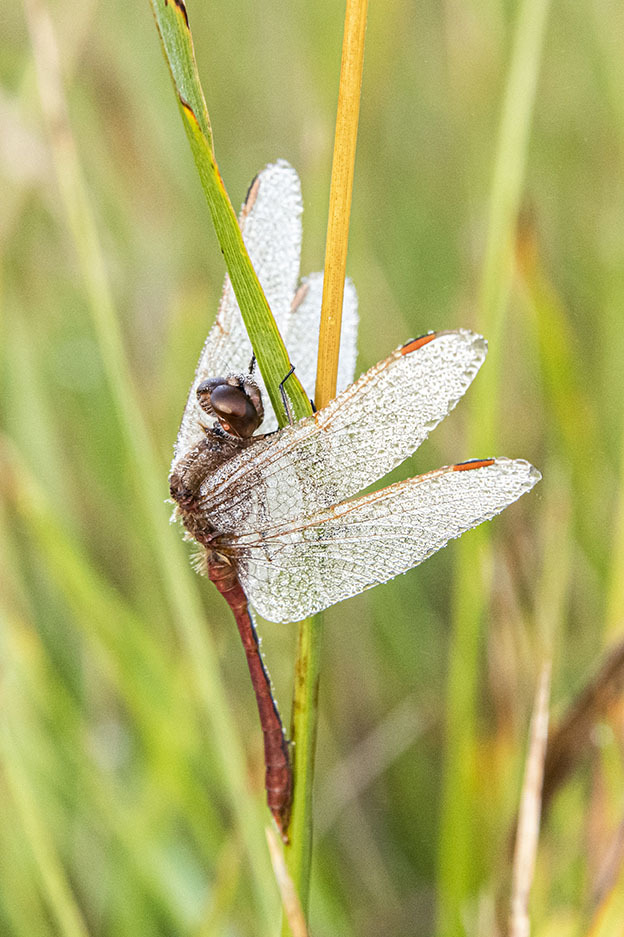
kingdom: Animalia
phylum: Arthropoda
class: Insecta
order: Odonata
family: Libellulidae
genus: Sympetrum
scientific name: Sympetrum costiferum
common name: Saffron-winged meadowhawk
